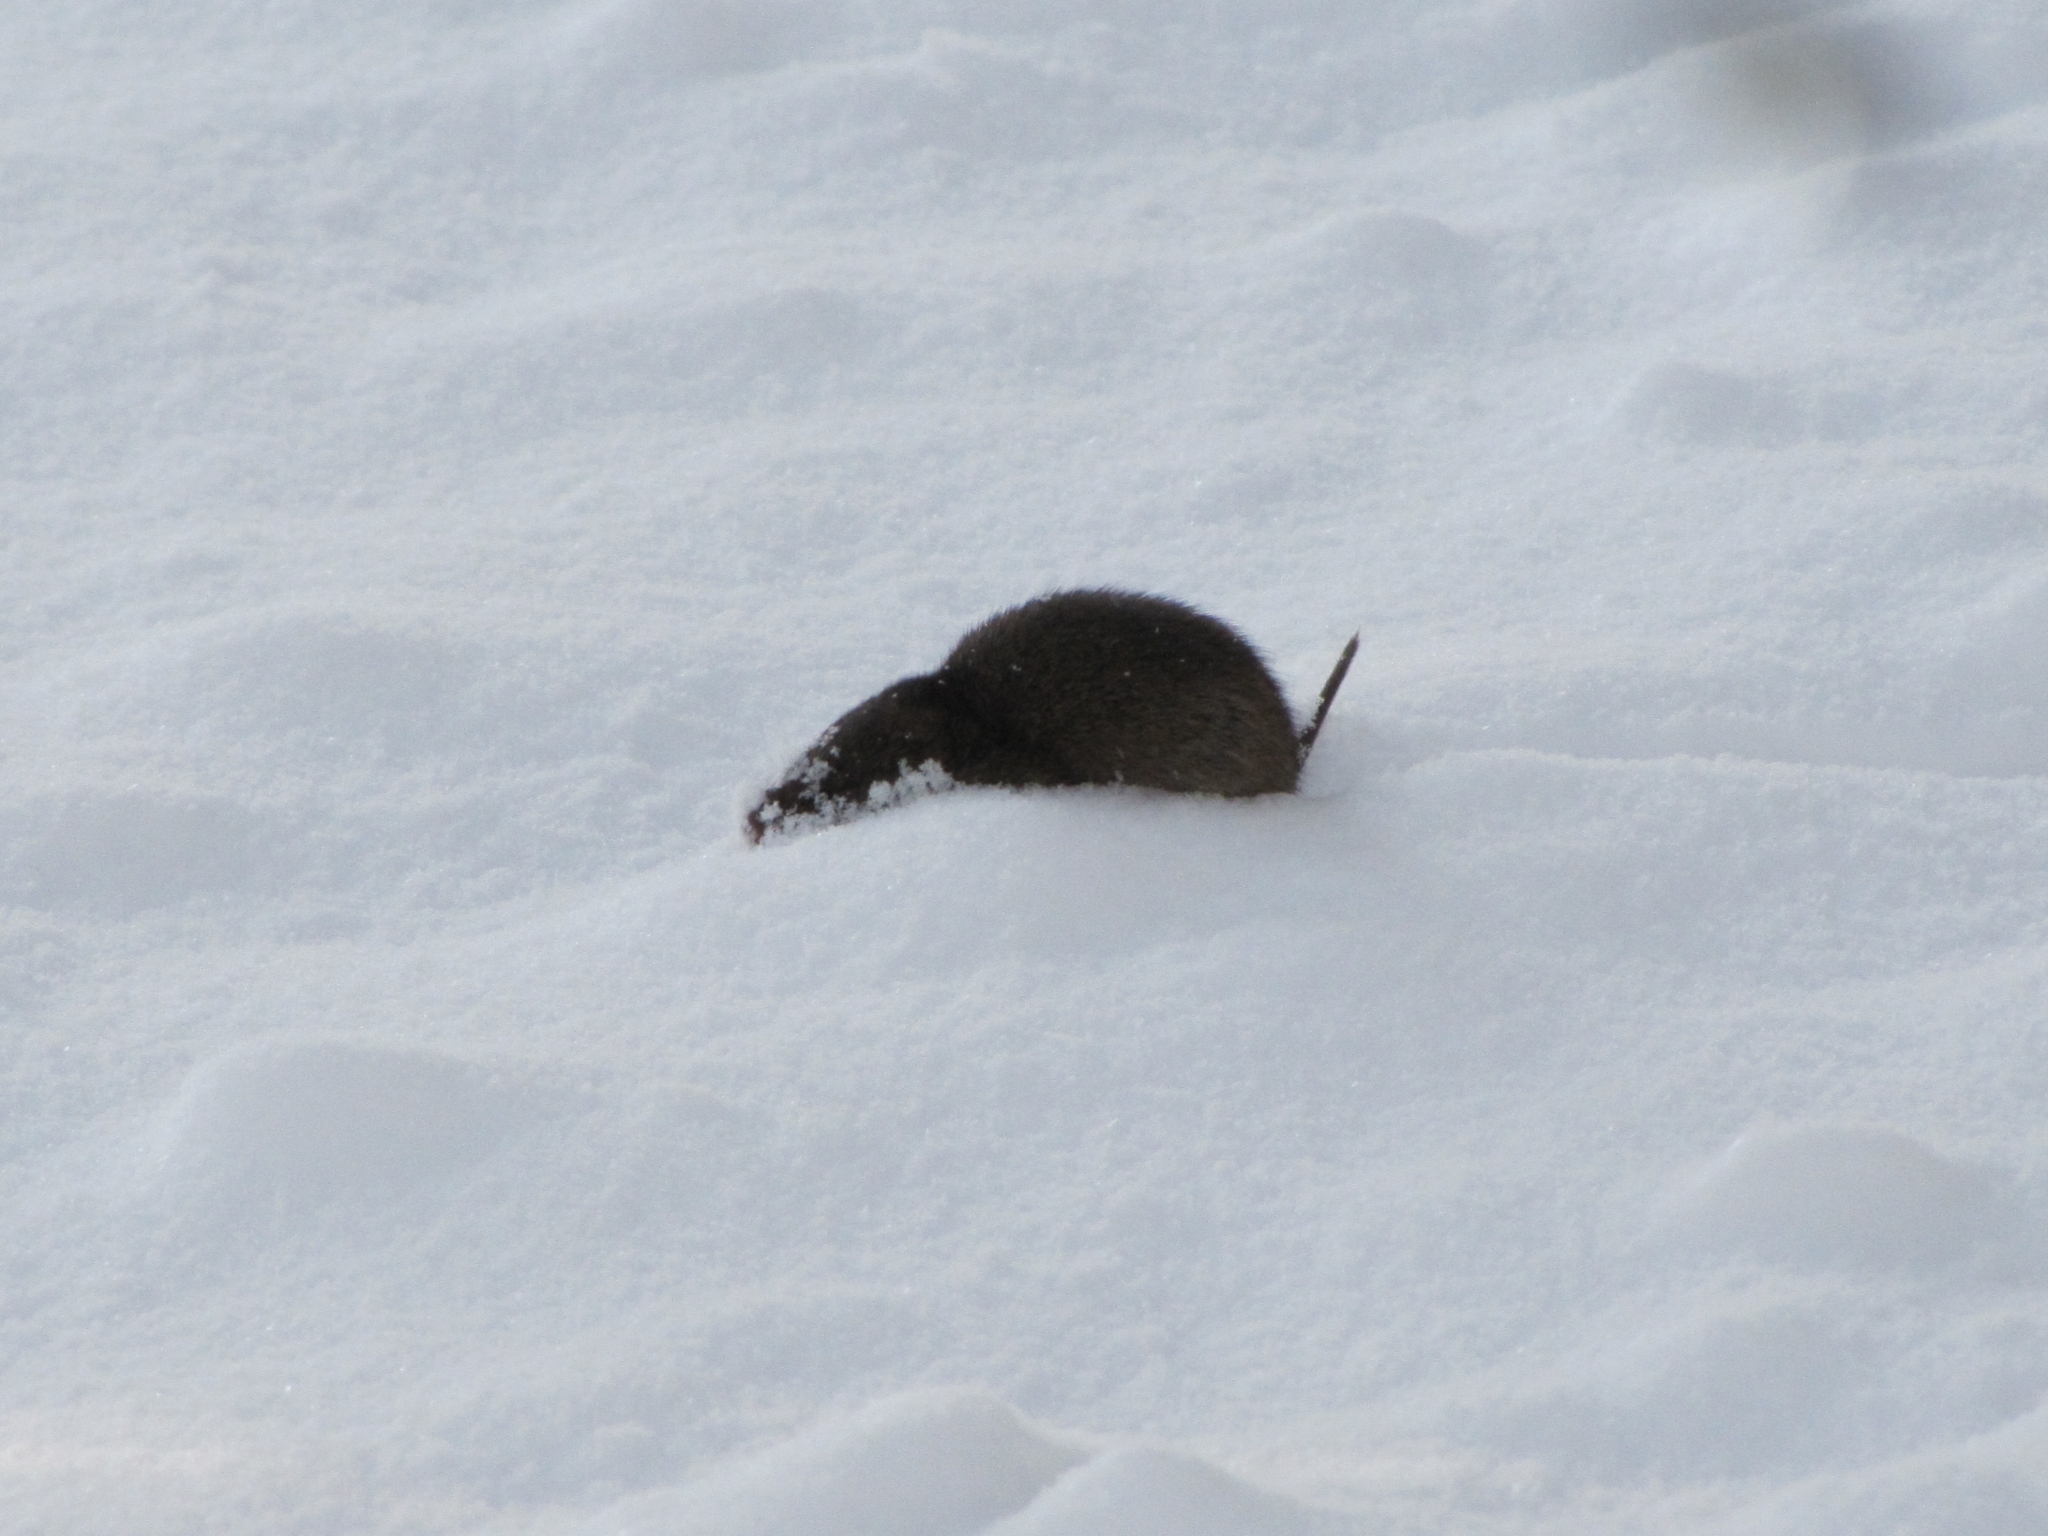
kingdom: Animalia
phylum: Chordata
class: Mammalia
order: Soricomorpha
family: Soricidae
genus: Blarina
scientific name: Blarina brevicauda
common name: Northern short-tailed shrew
